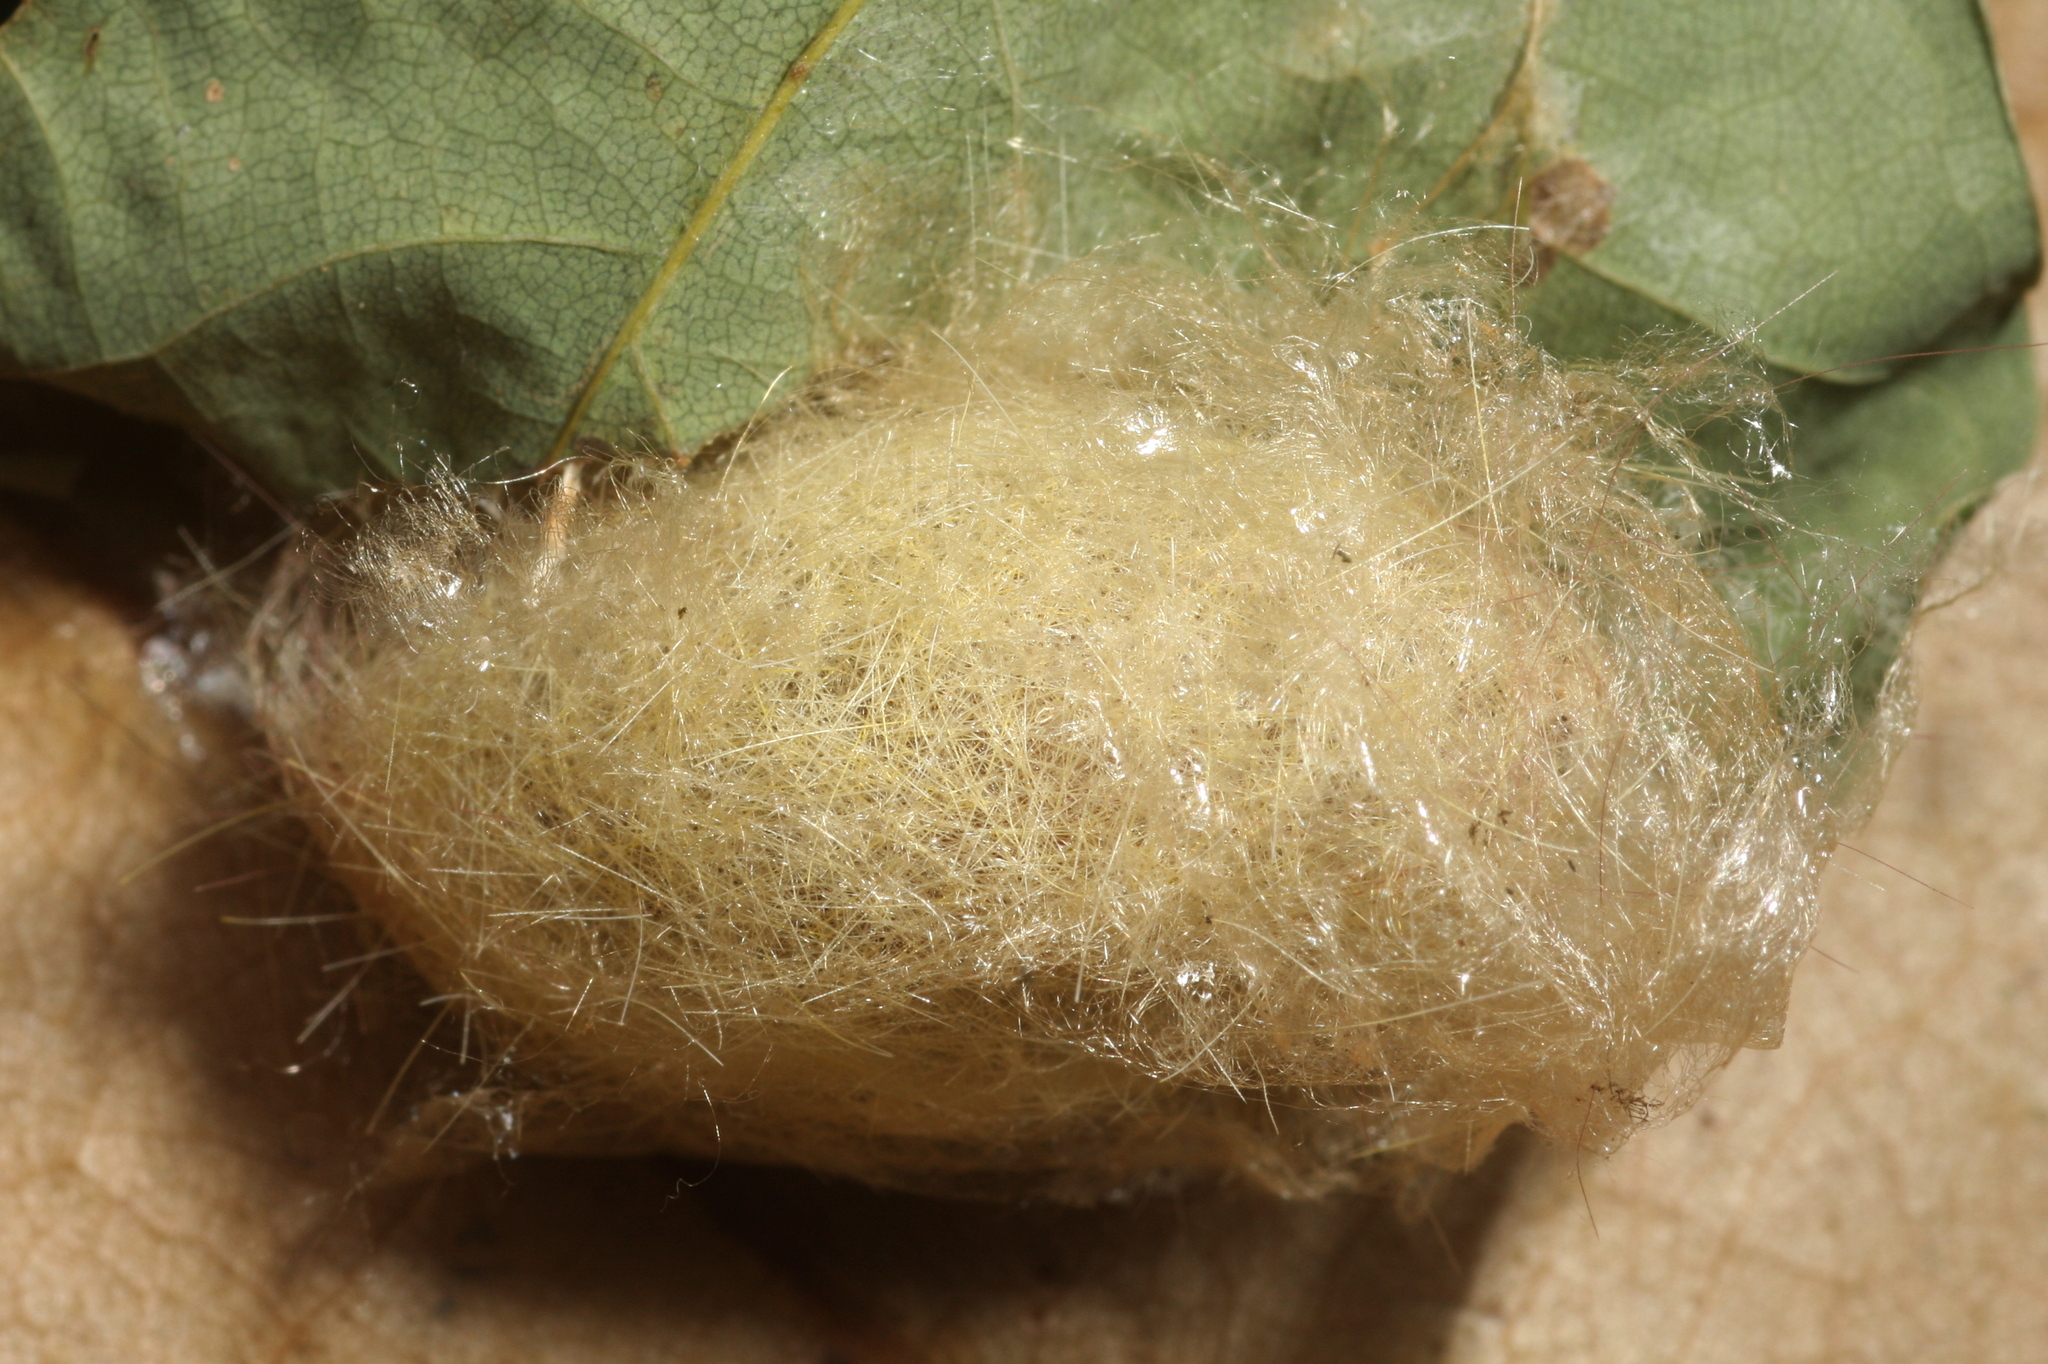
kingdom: Animalia
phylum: Arthropoda
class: Insecta
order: Lepidoptera
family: Erebidae
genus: Calliteara
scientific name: Calliteara pudibunda
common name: Pale tussock
